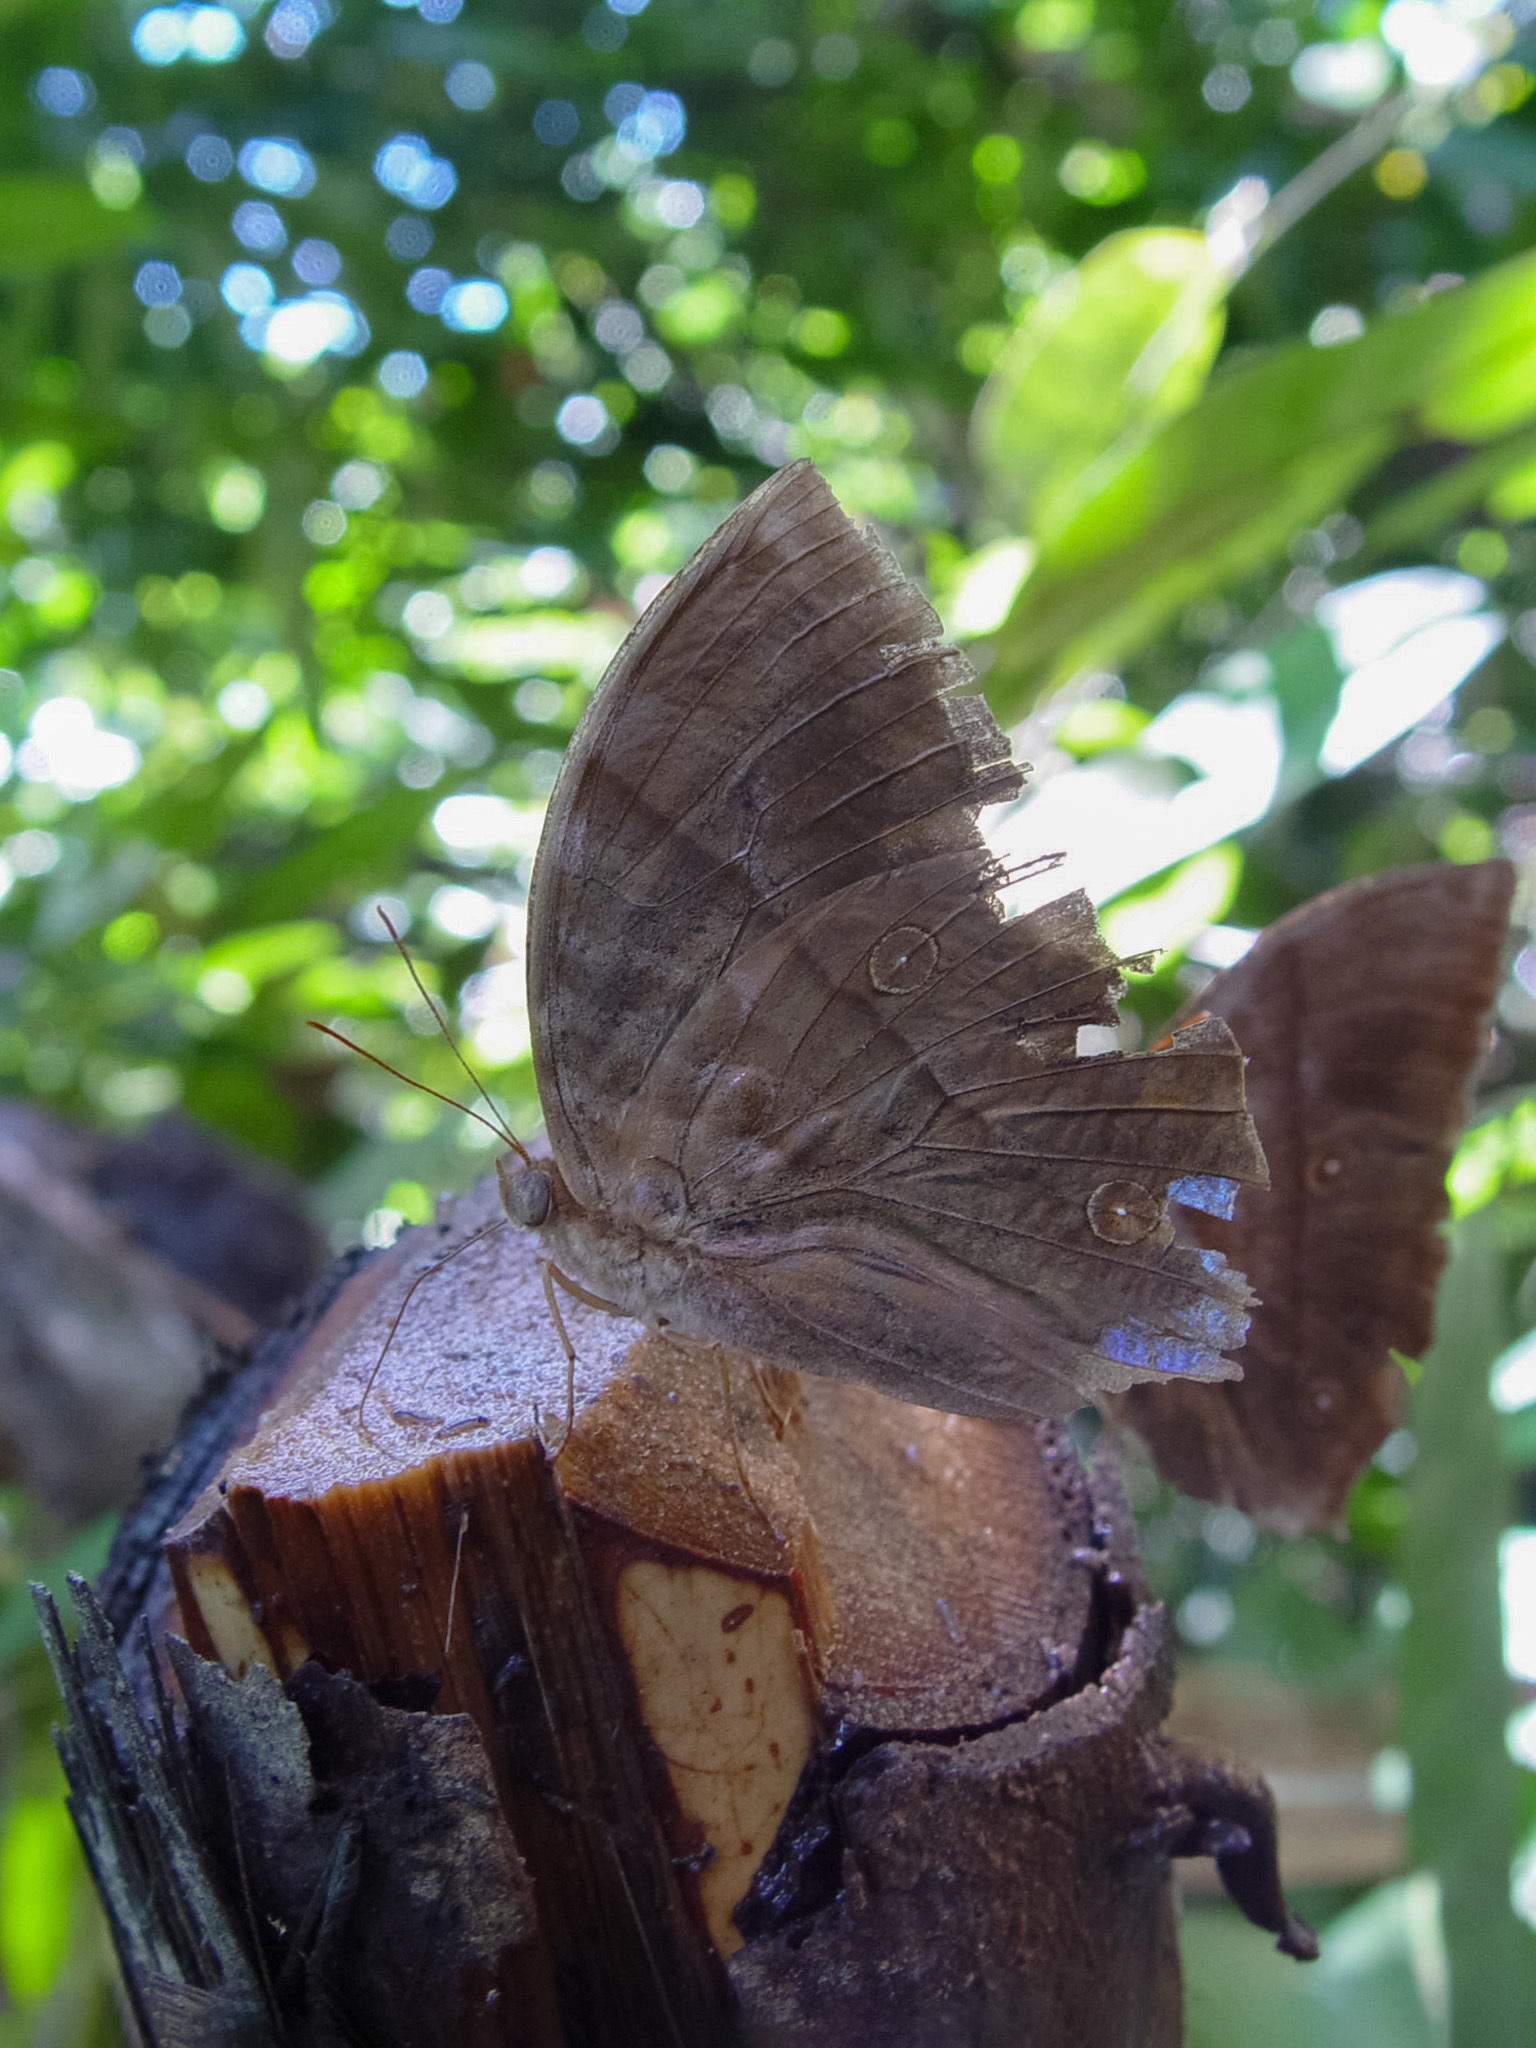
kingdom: Animalia
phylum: Arthropoda
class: Insecta
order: Lepidoptera
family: Nymphalidae
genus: Zeuxidia
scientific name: Zeuxidia amethysta
